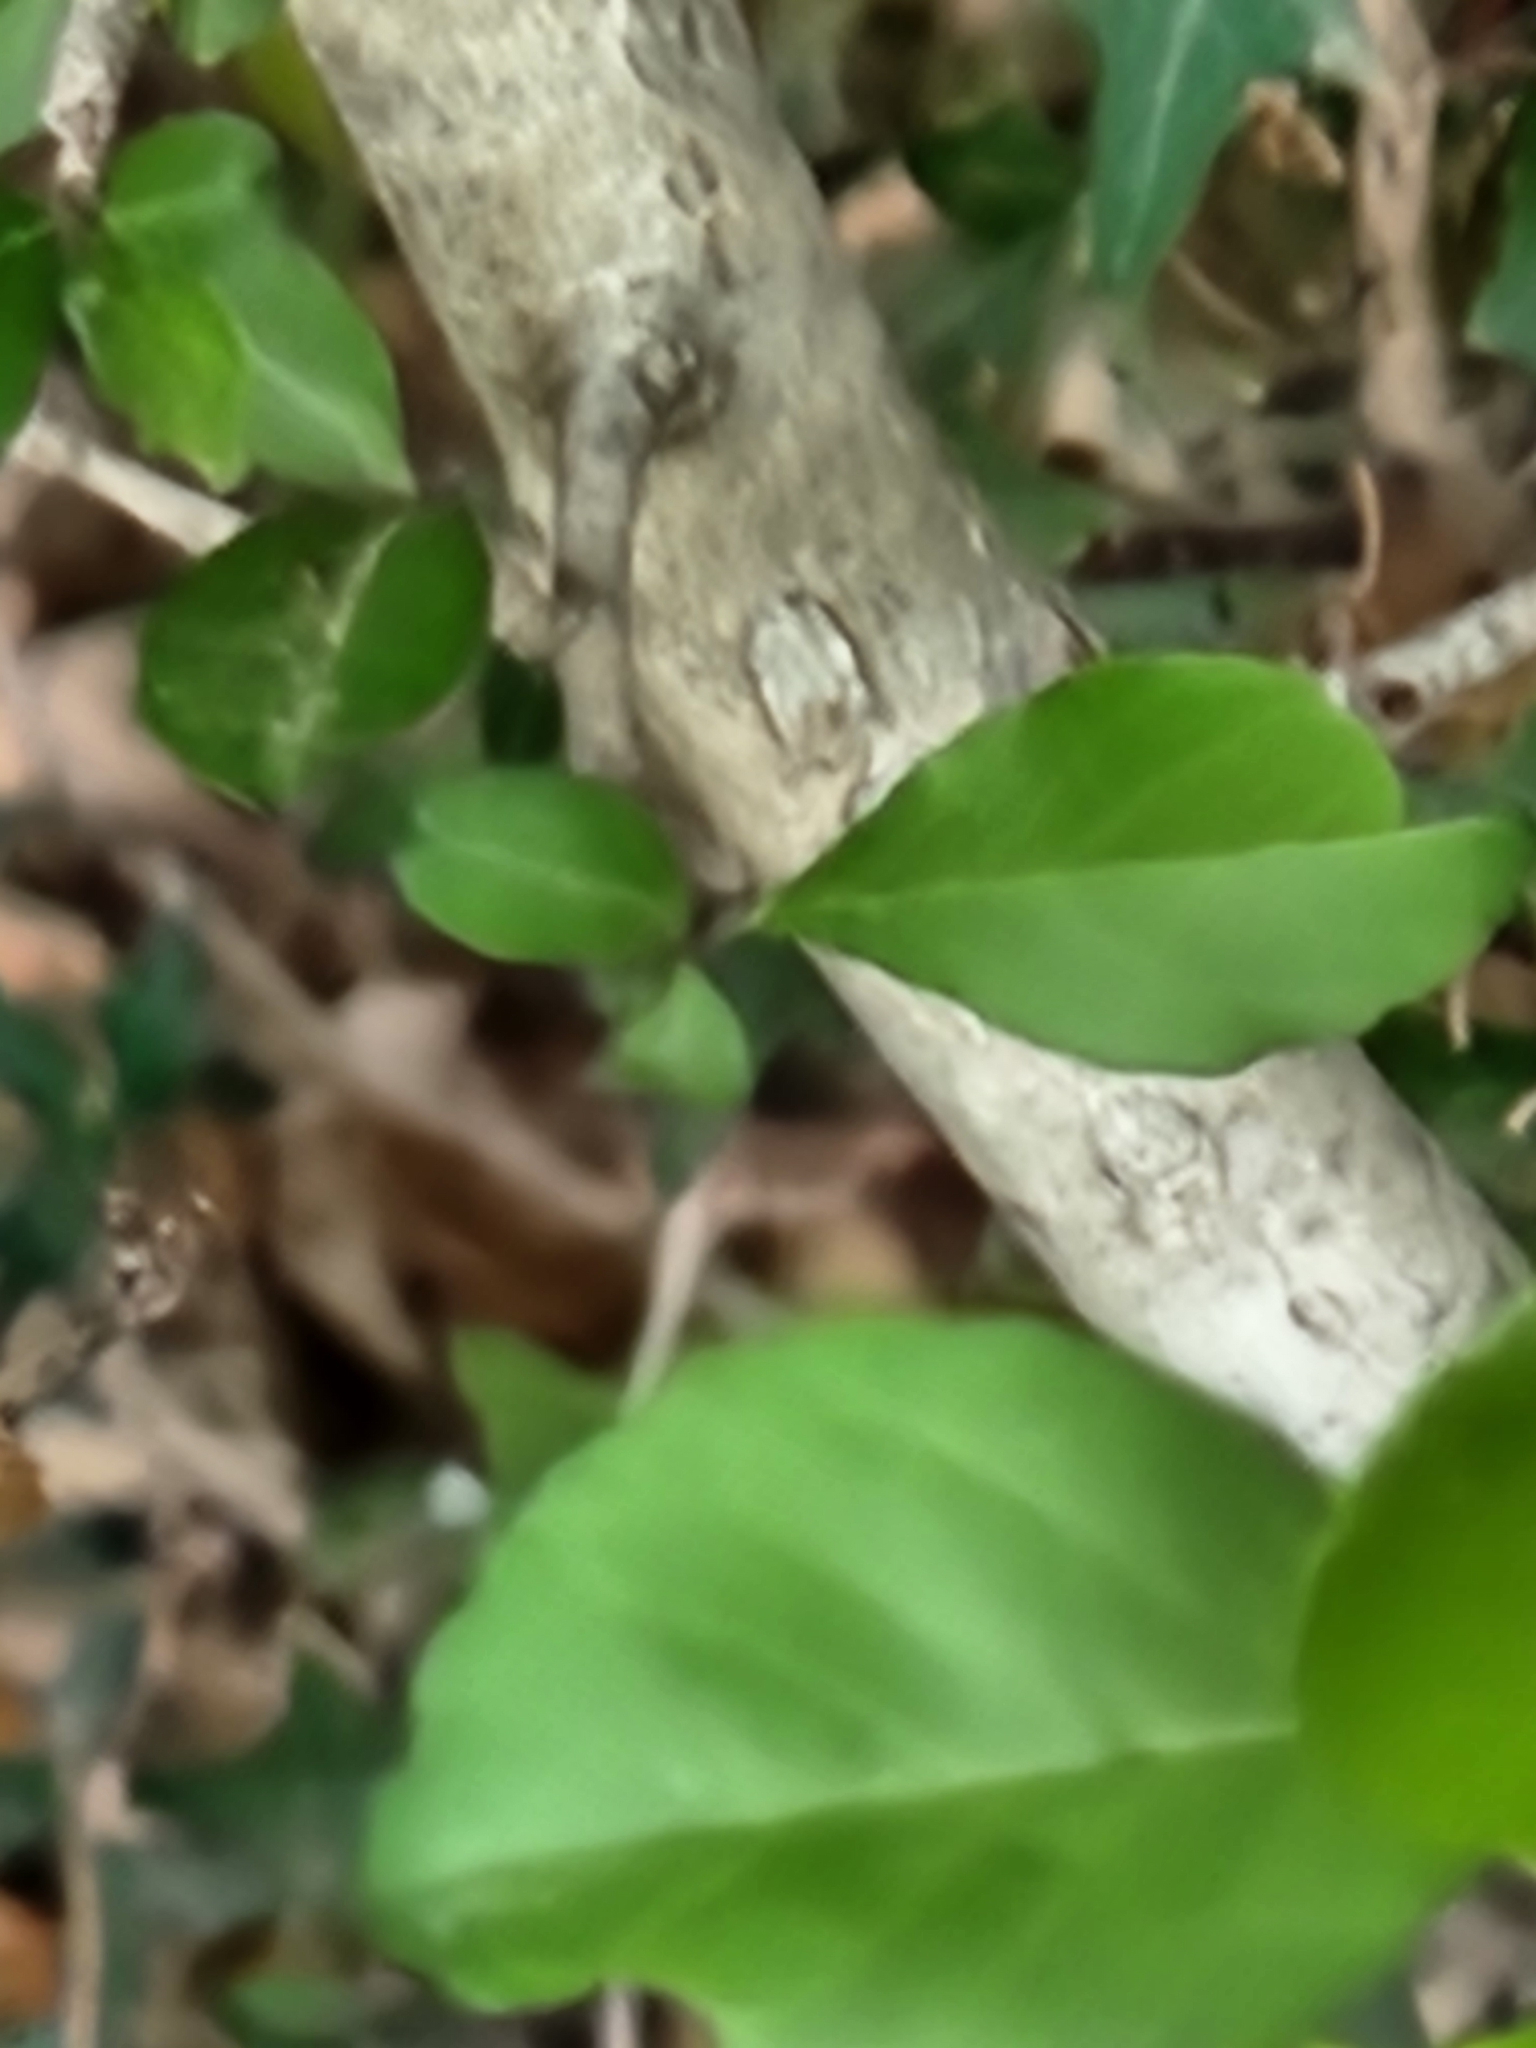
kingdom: Plantae
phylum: Tracheophyta
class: Magnoliopsida
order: Aquifoliales
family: Aquifoliaceae
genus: Ilex
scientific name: Ilex decidua
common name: Possum-haw
